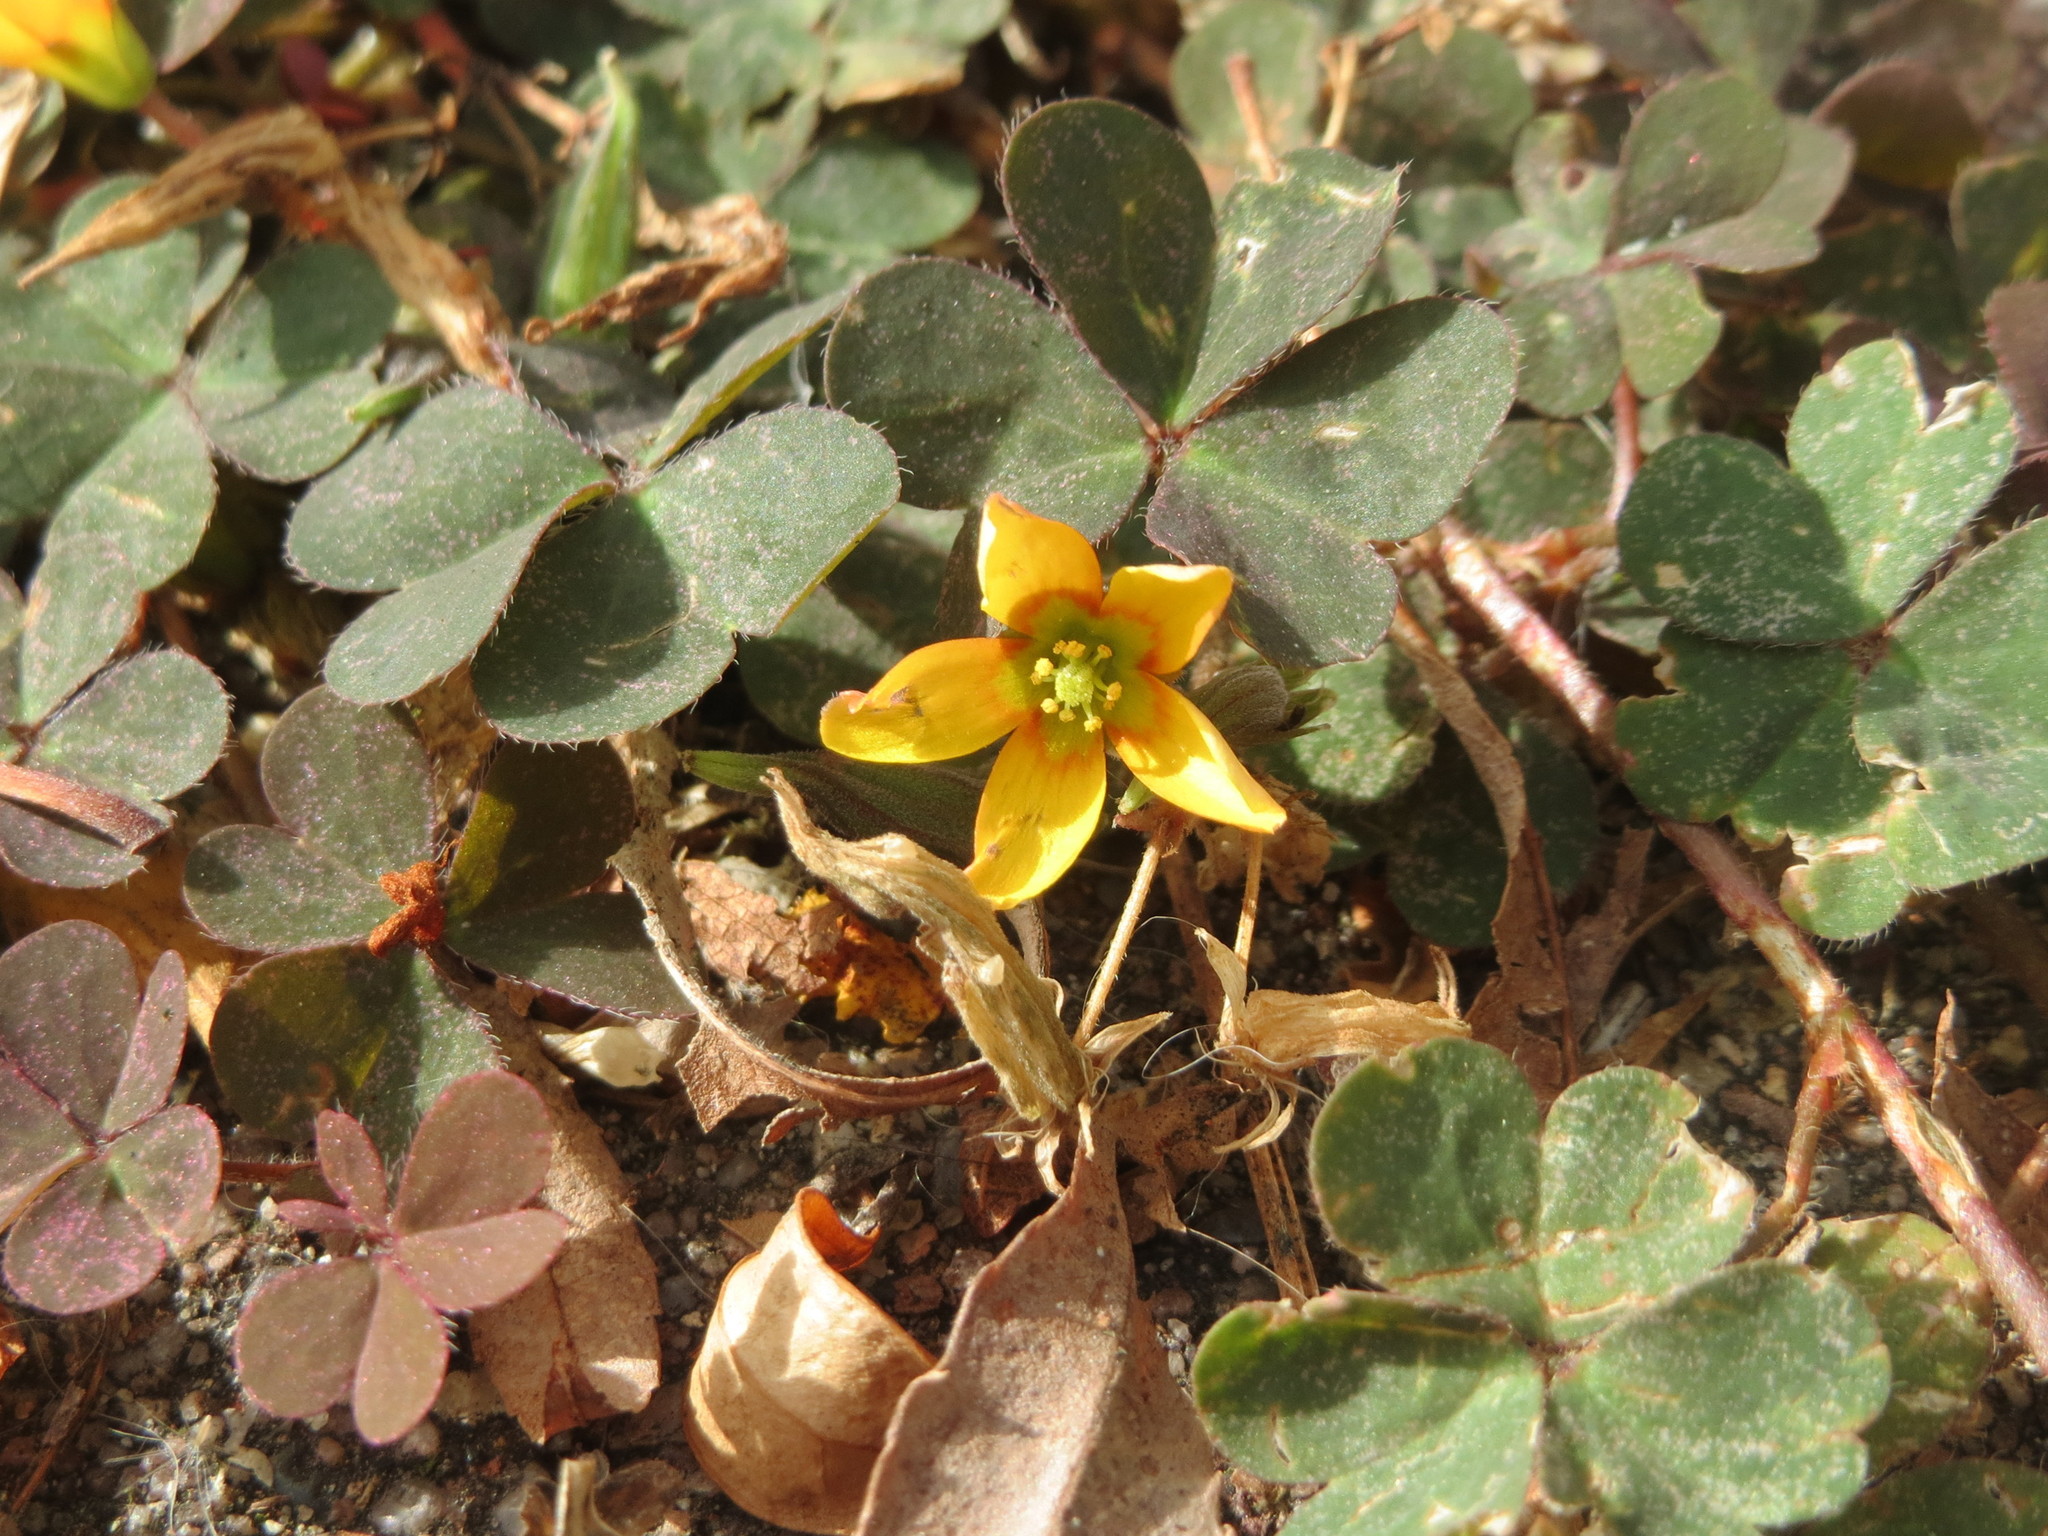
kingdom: Plantae
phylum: Tracheophyta
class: Magnoliopsida
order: Oxalidales
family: Oxalidaceae
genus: Oxalis
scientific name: Oxalis corniculata
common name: Procumbent yellow-sorrel
